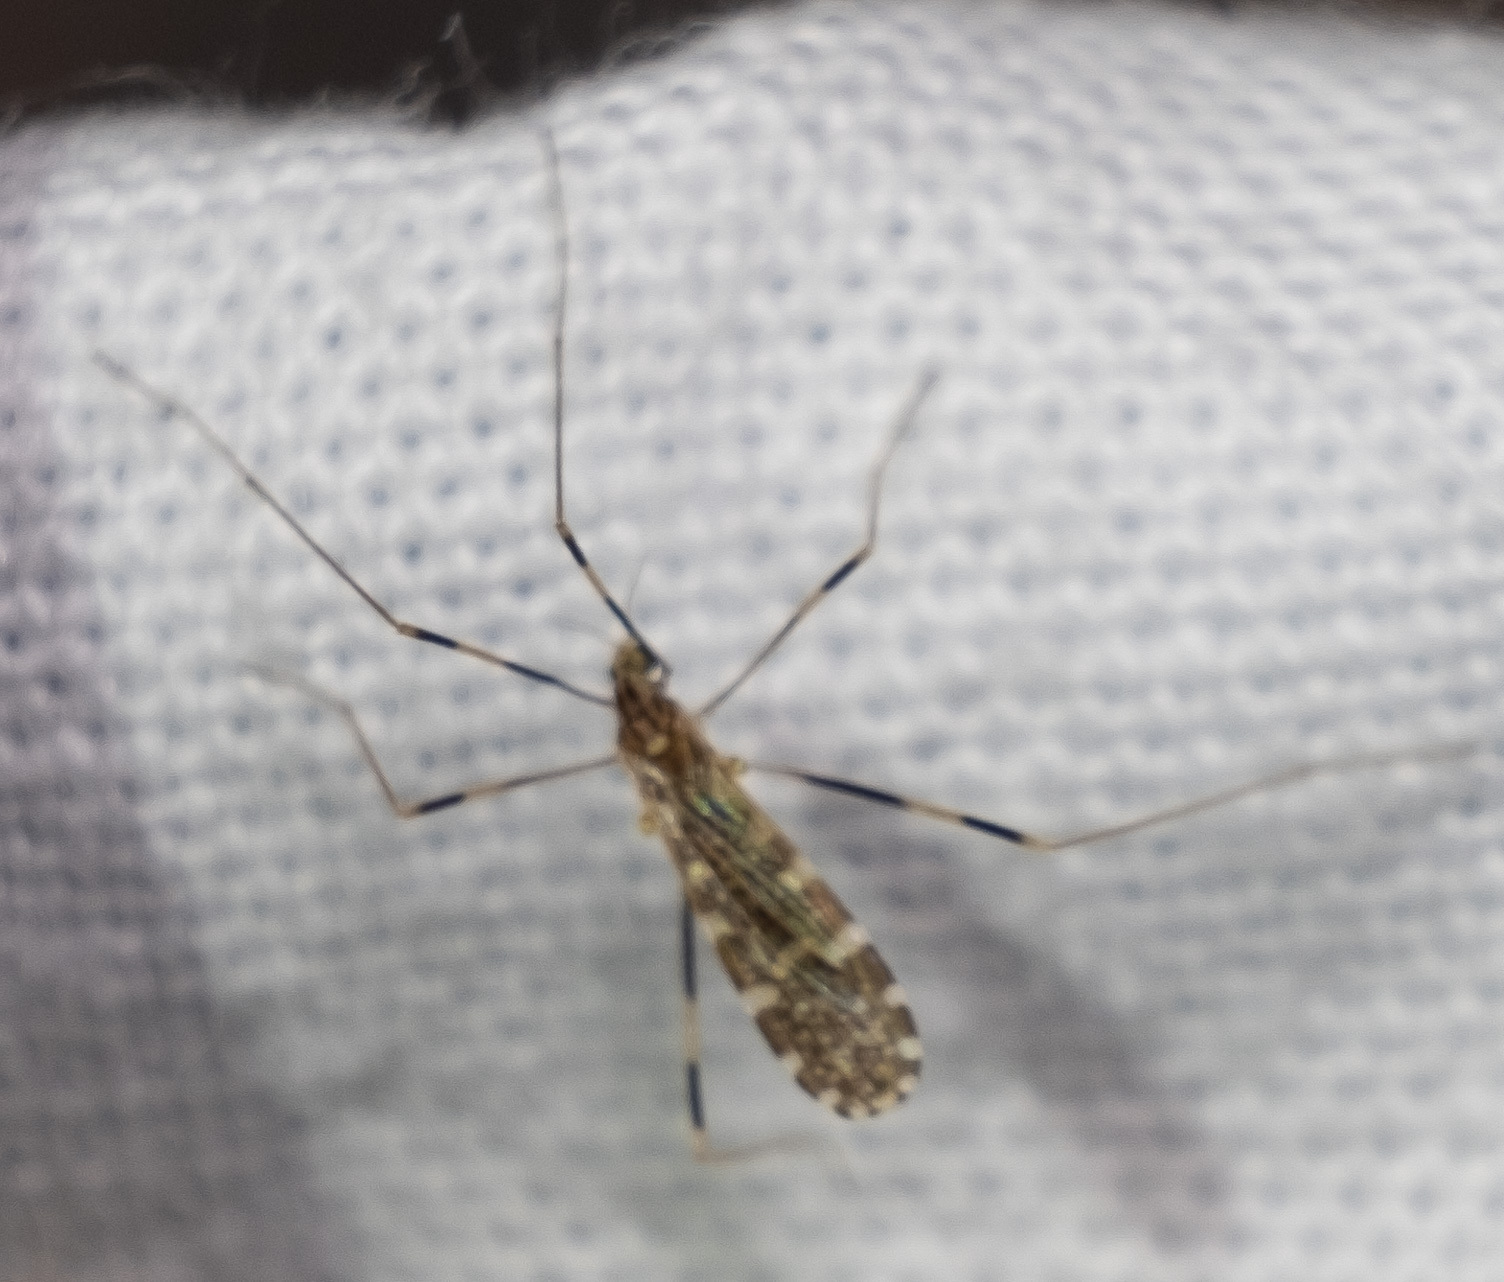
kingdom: Animalia
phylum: Arthropoda
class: Insecta
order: Diptera
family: Limoniidae
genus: Erioptera
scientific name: Erioptera caliptera
